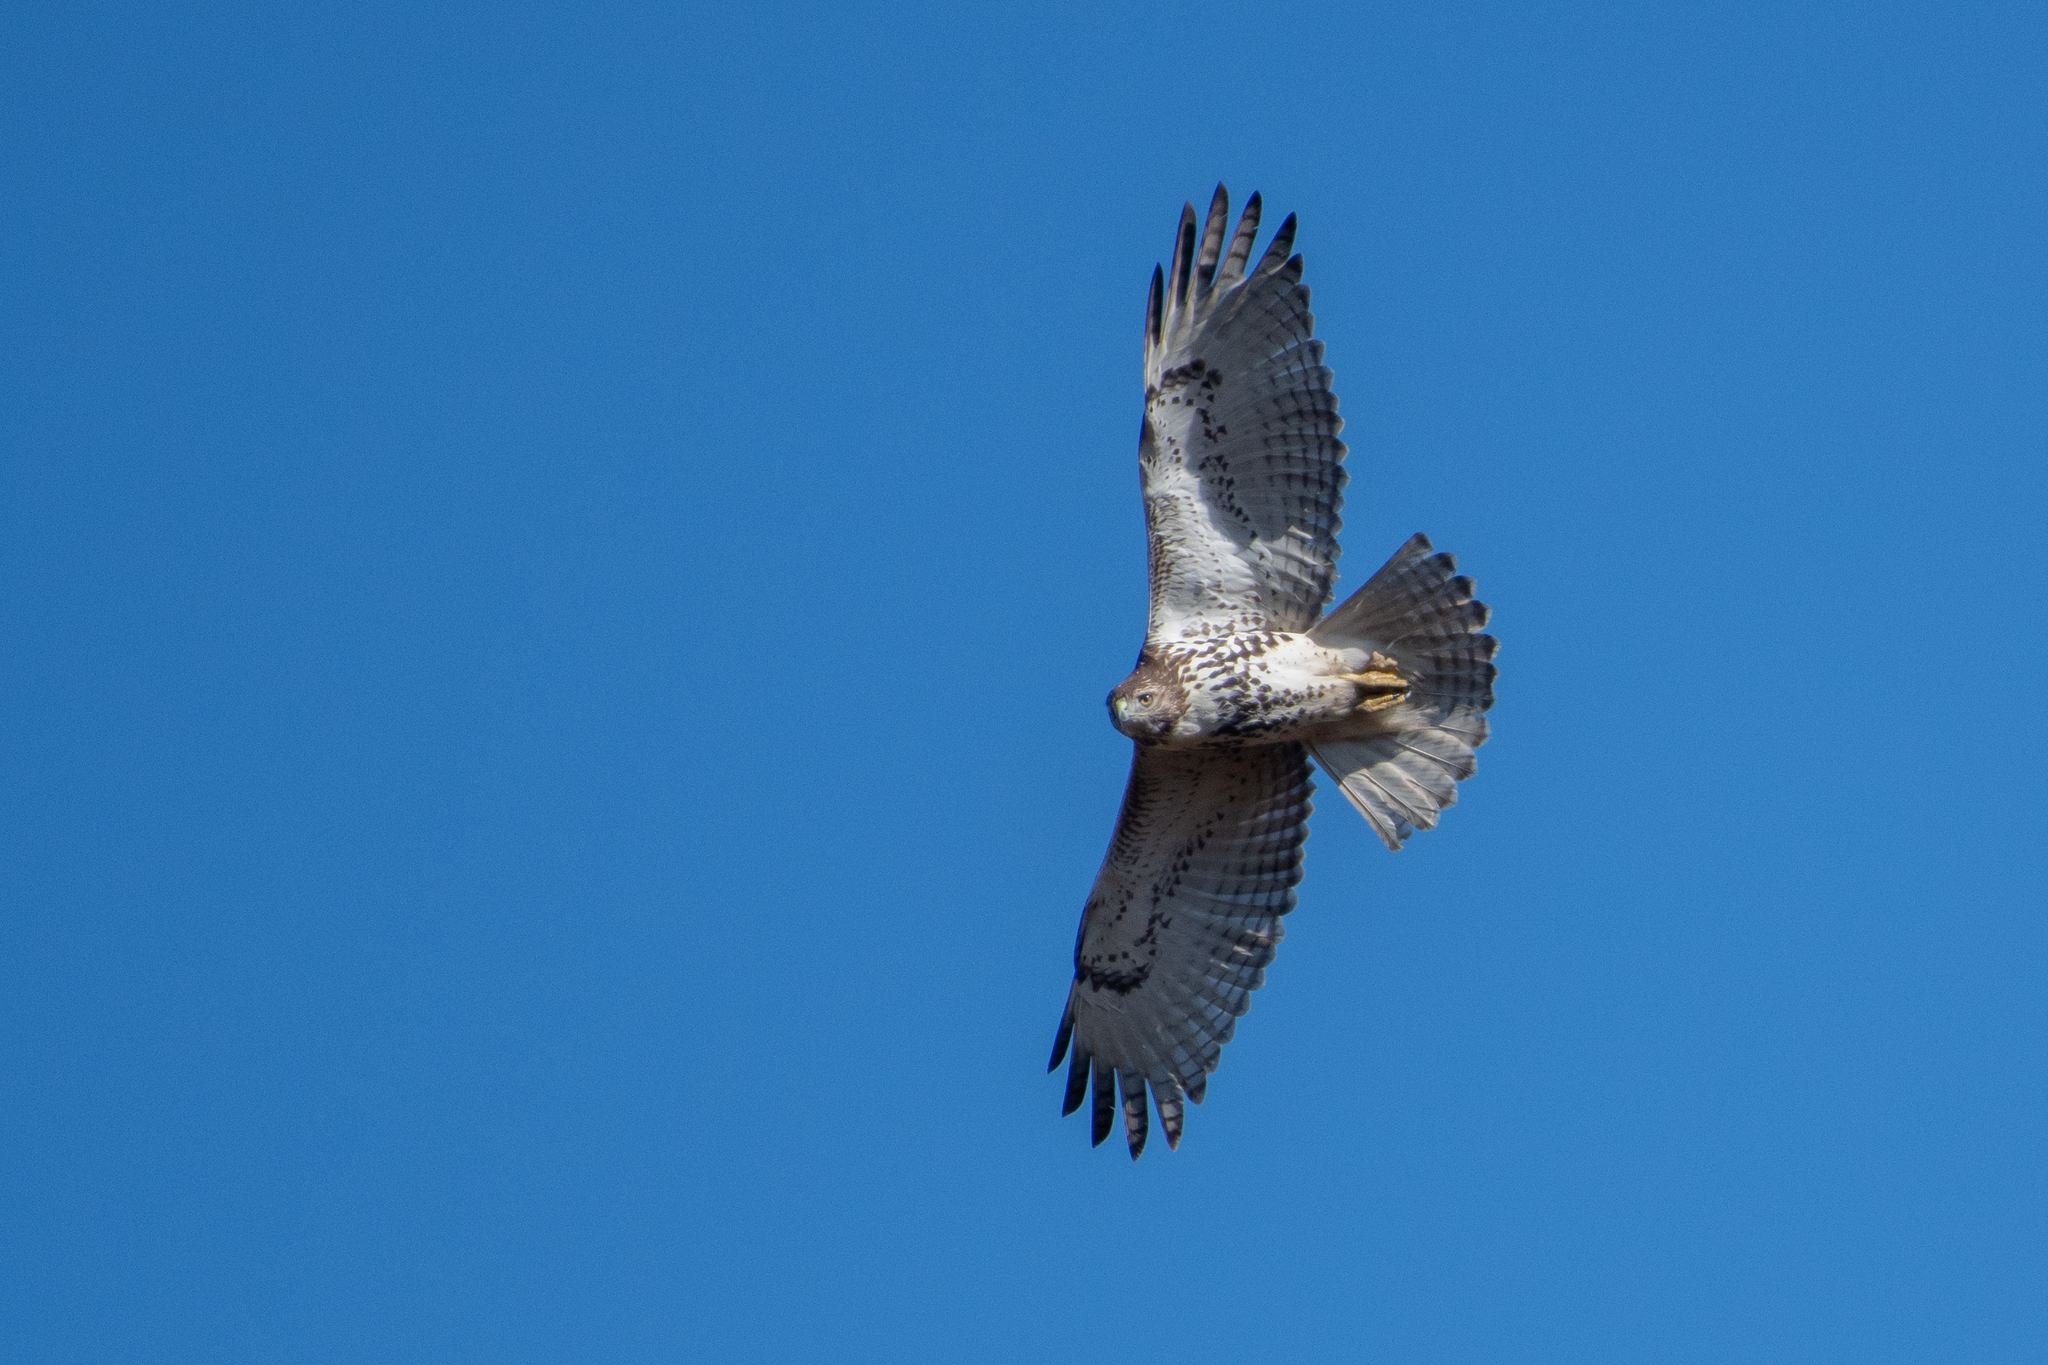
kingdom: Animalia
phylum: Chordata
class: Aves
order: Accipitriformes
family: Accipitridae
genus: Buteo
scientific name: Buteo jamaicensis
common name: Red-tailed hawk
